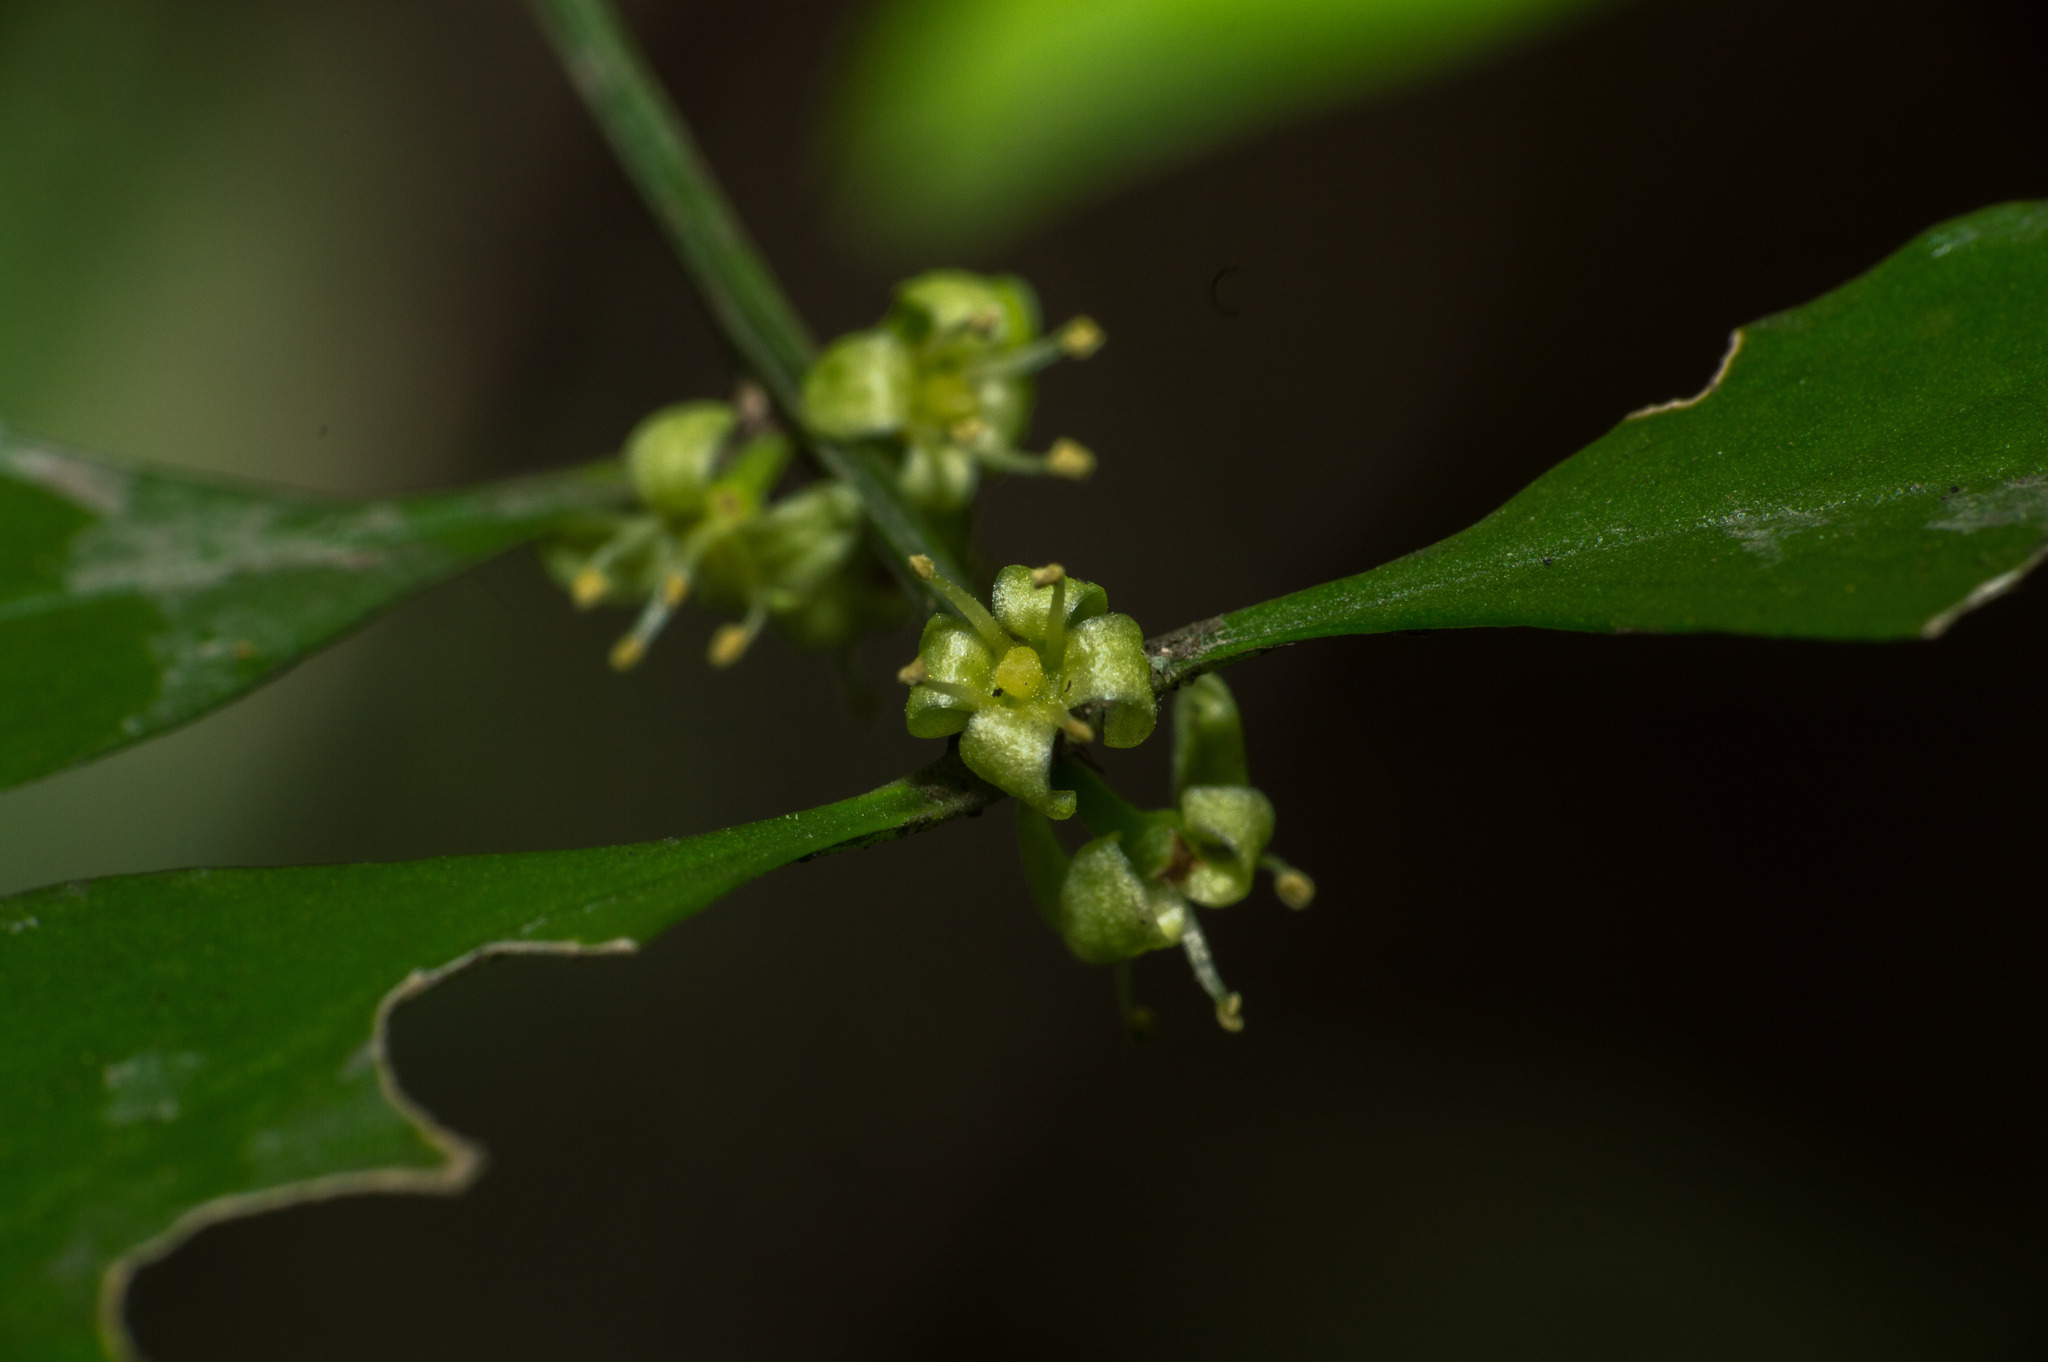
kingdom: Plantae
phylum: Tracheophyta
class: Magnoliopsida
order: Celastrales
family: Celastraceae
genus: Schaefferia
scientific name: Schaefferia argentinensis
